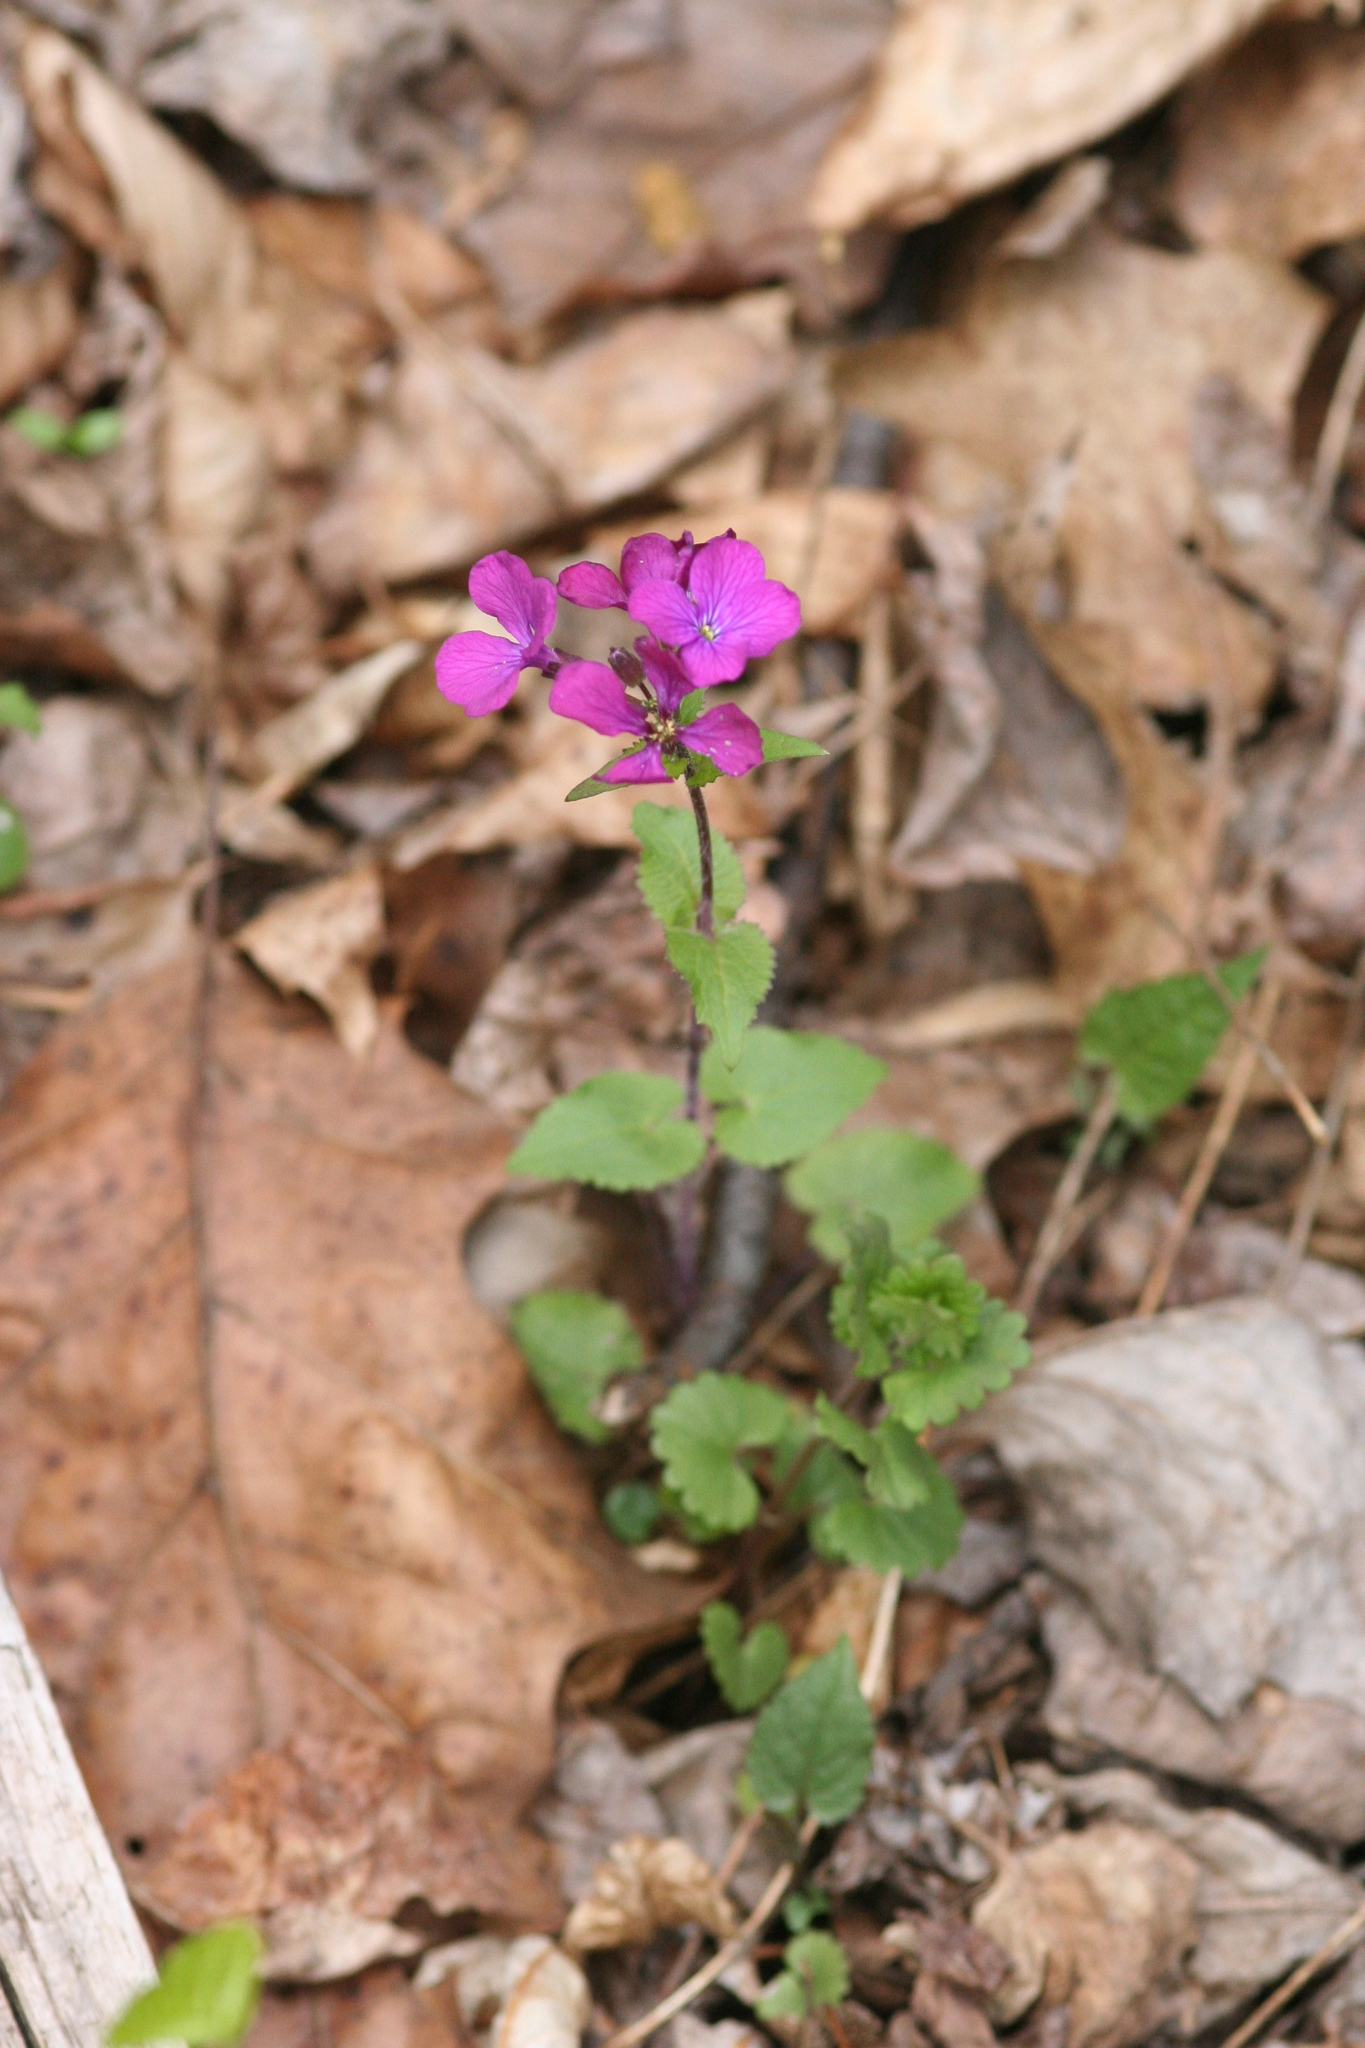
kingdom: Plantae
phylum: Tracheophyta
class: Magnoliopsida
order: Brassicales
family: Brassicaceae
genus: Lunaria
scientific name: Lunaria annua
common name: Honesty
